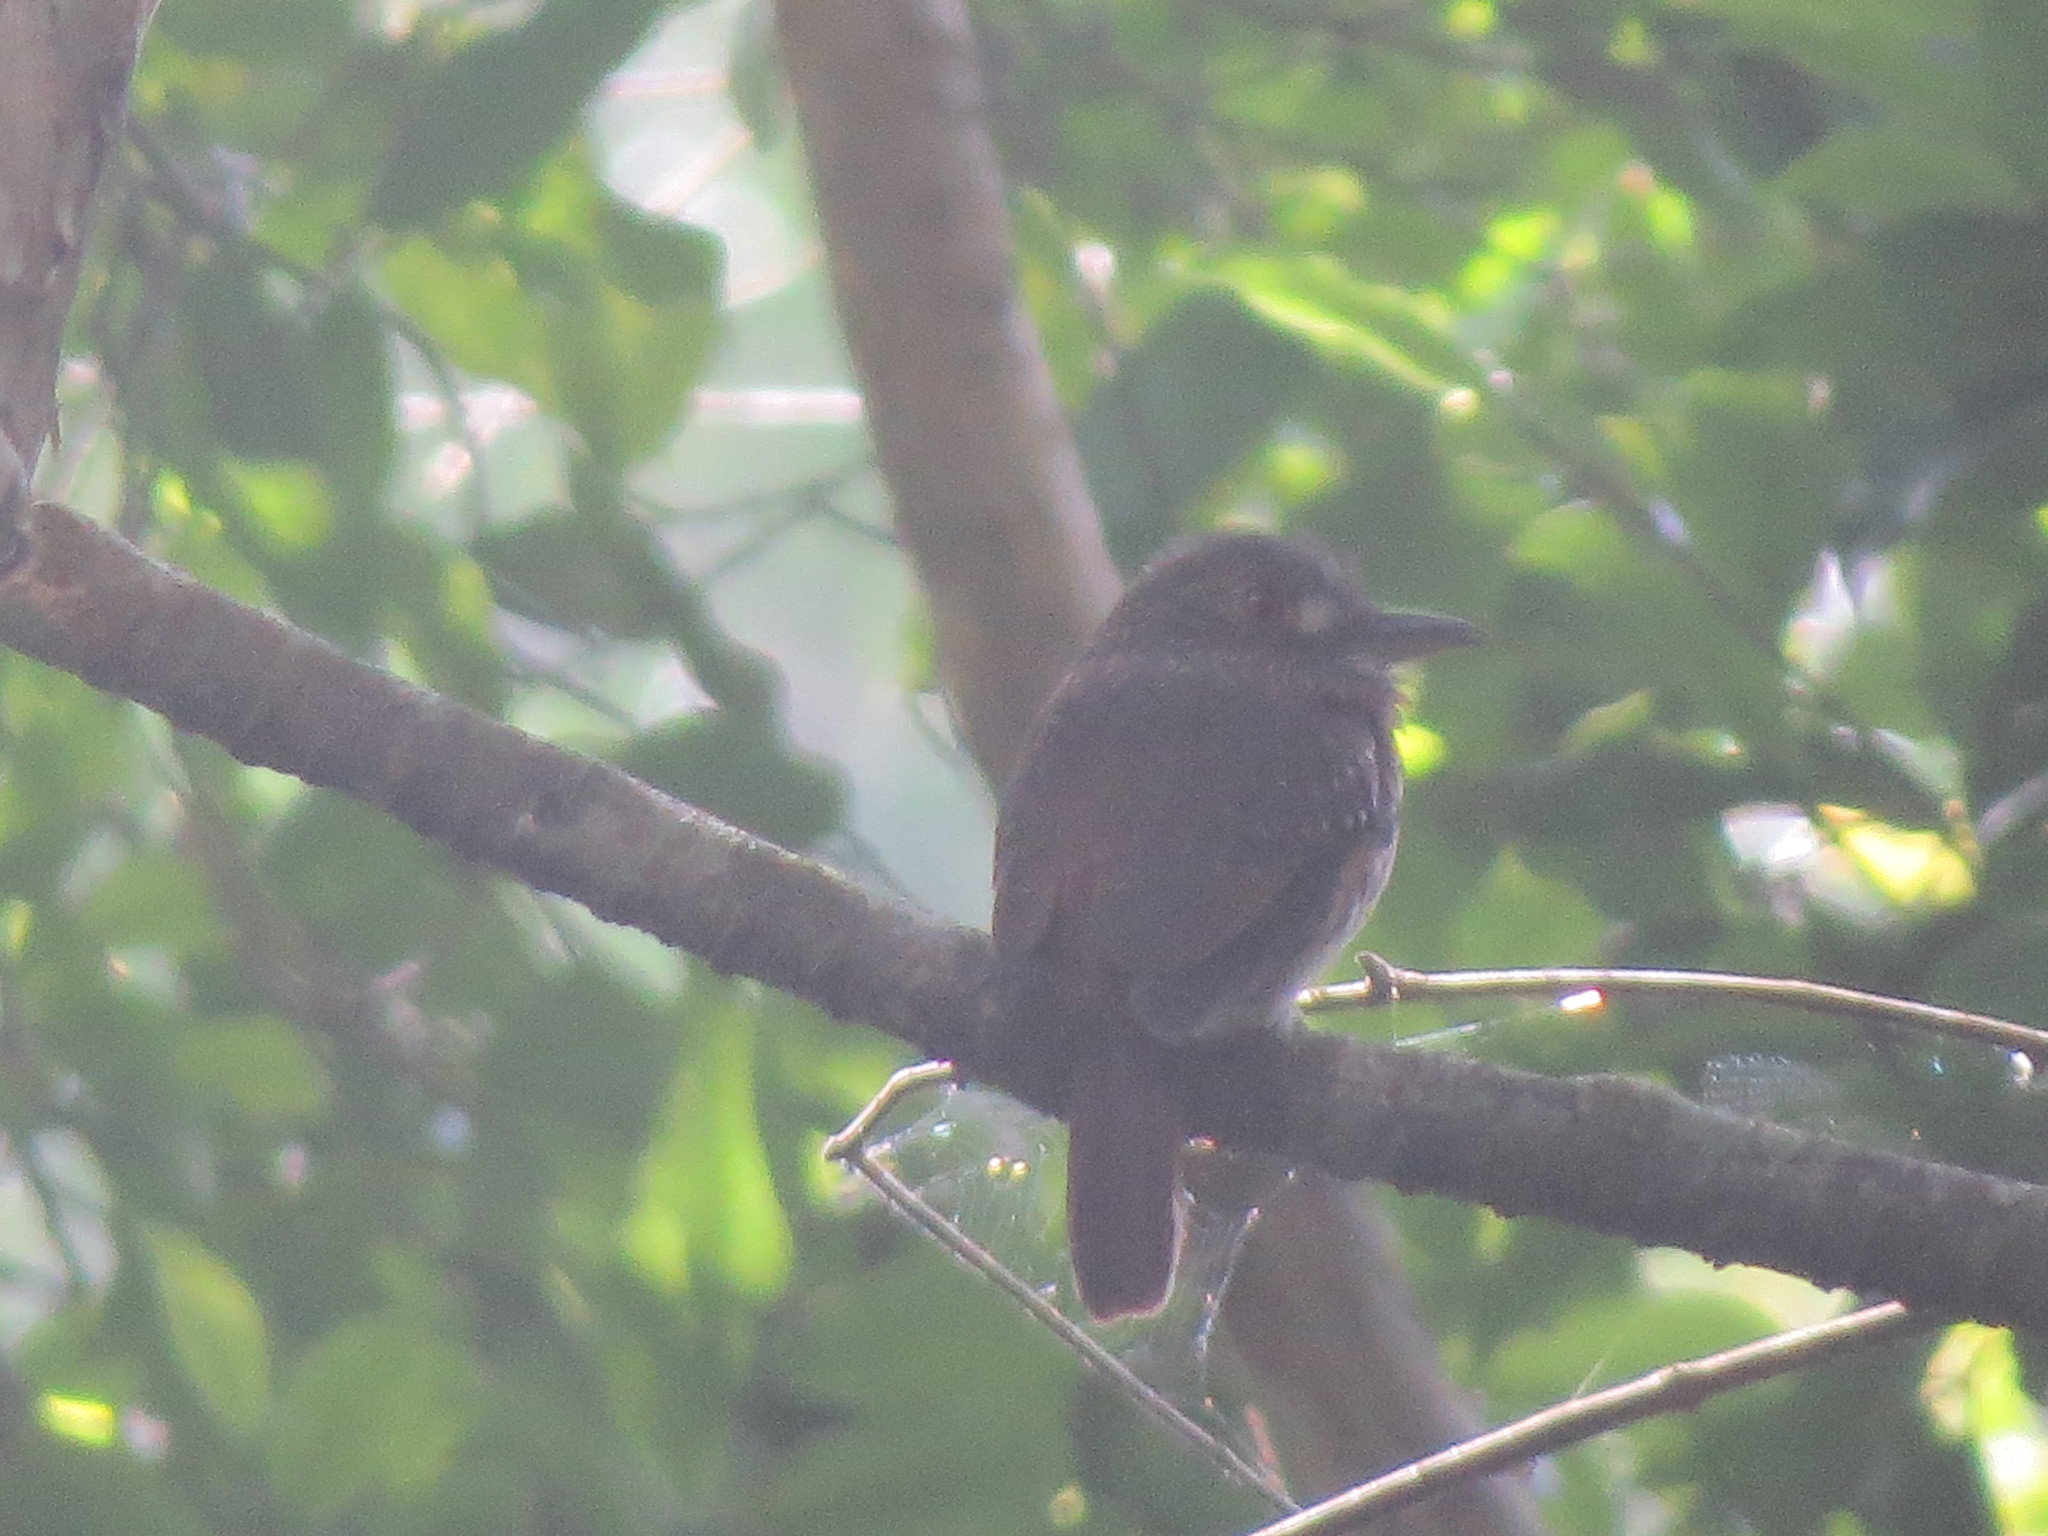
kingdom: Animalia
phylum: Chordata
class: Aves
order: Piciformes
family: Bucconidae
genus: Malacoptila
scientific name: Malacoptila panamensis
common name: White-whiskered puffbird
